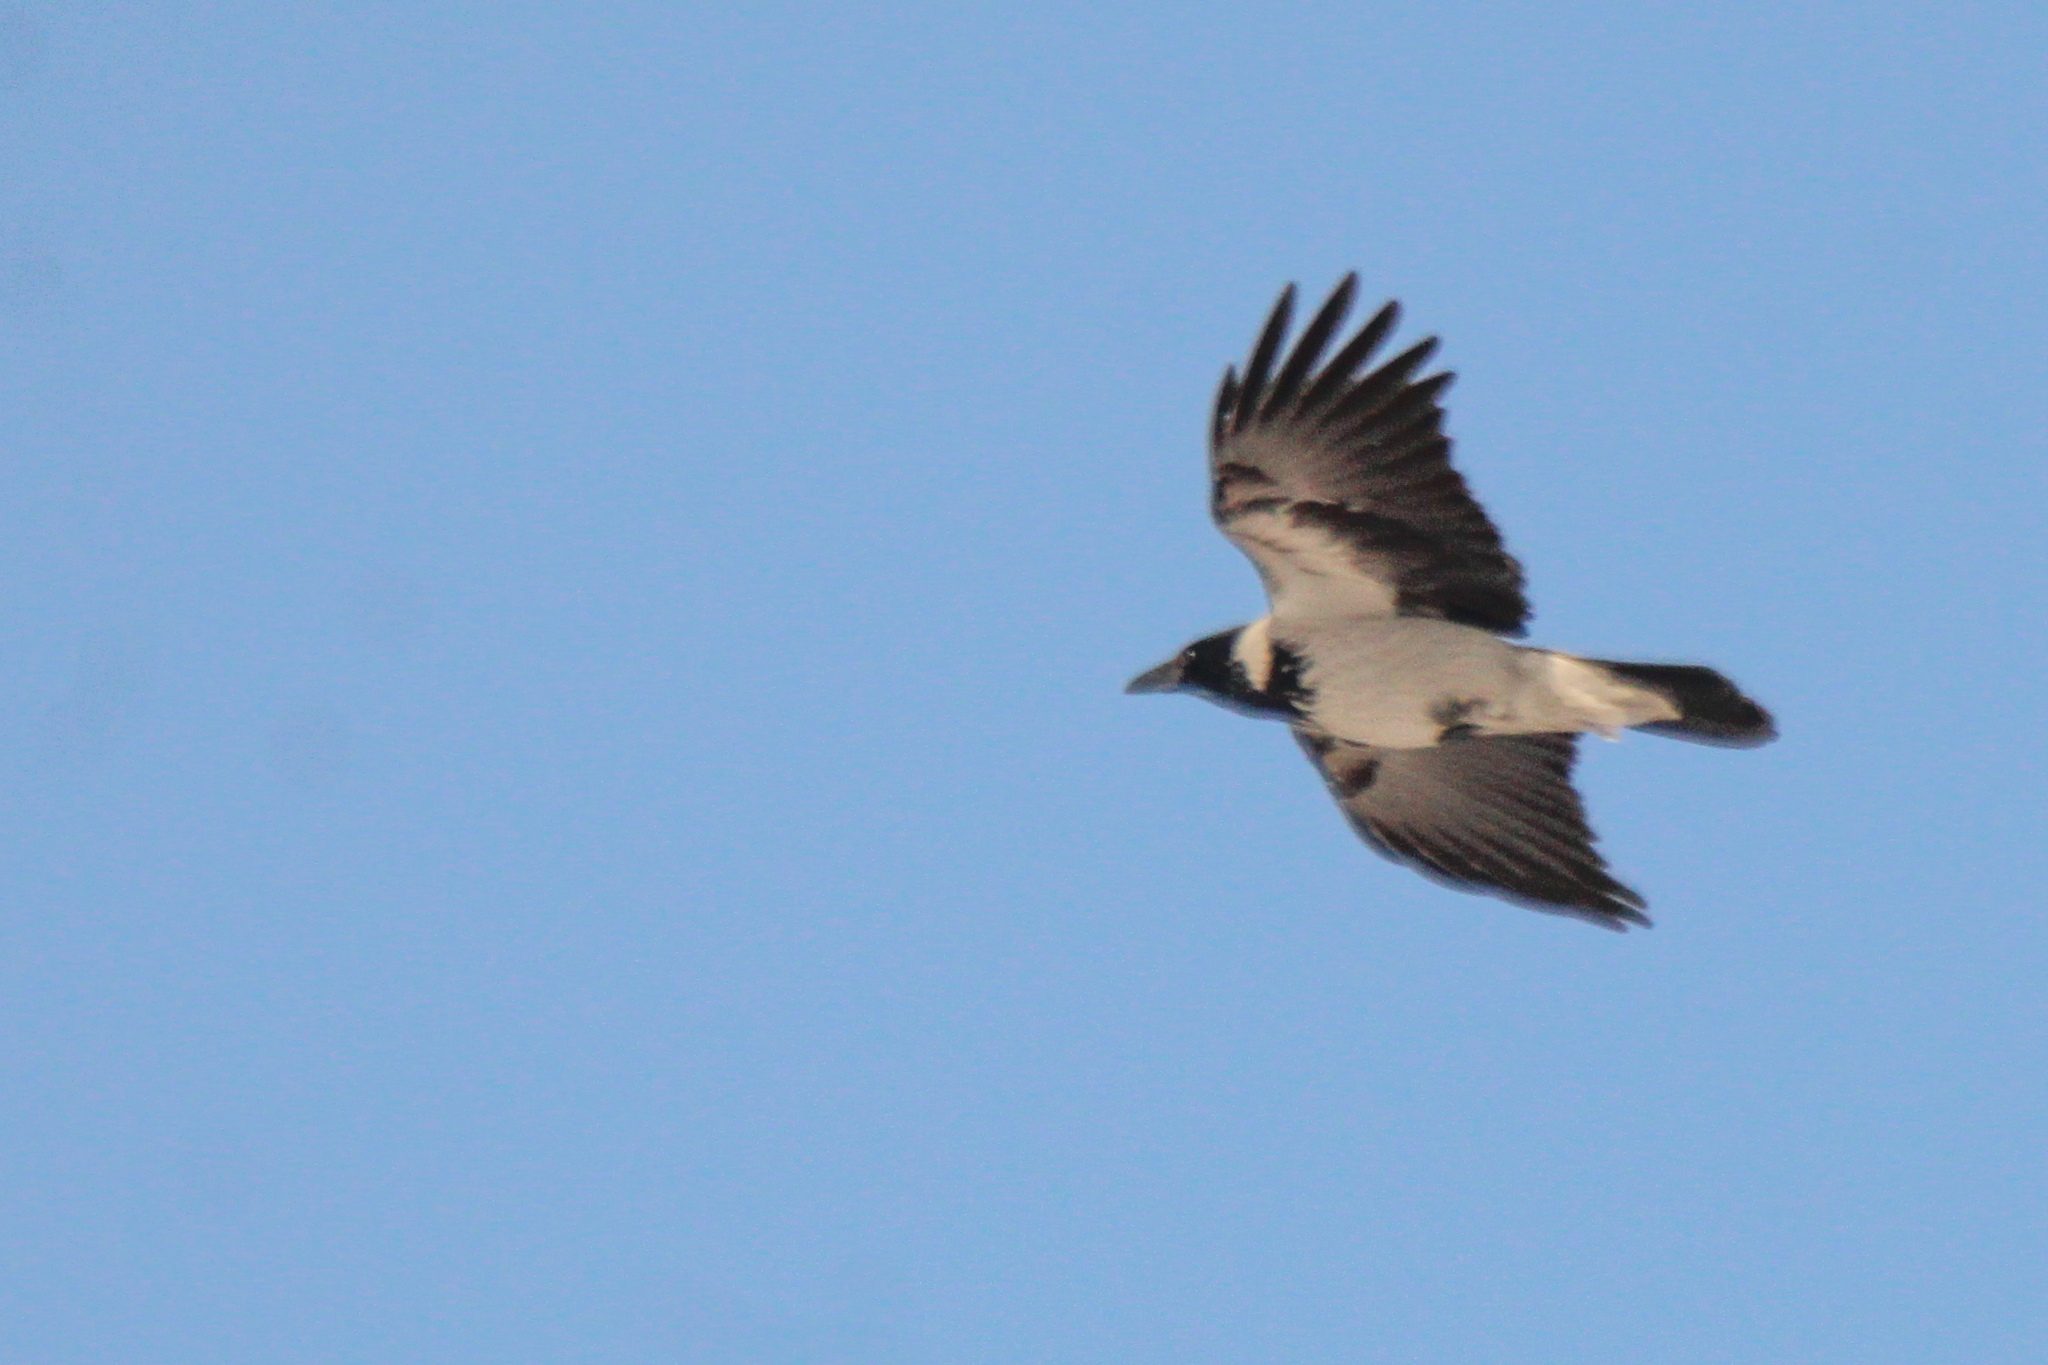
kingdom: Animalia
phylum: Chordata
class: Aves
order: Passeriformes
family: Corvidae
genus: Corvus
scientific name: Corvus cornix
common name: Hooded crow
